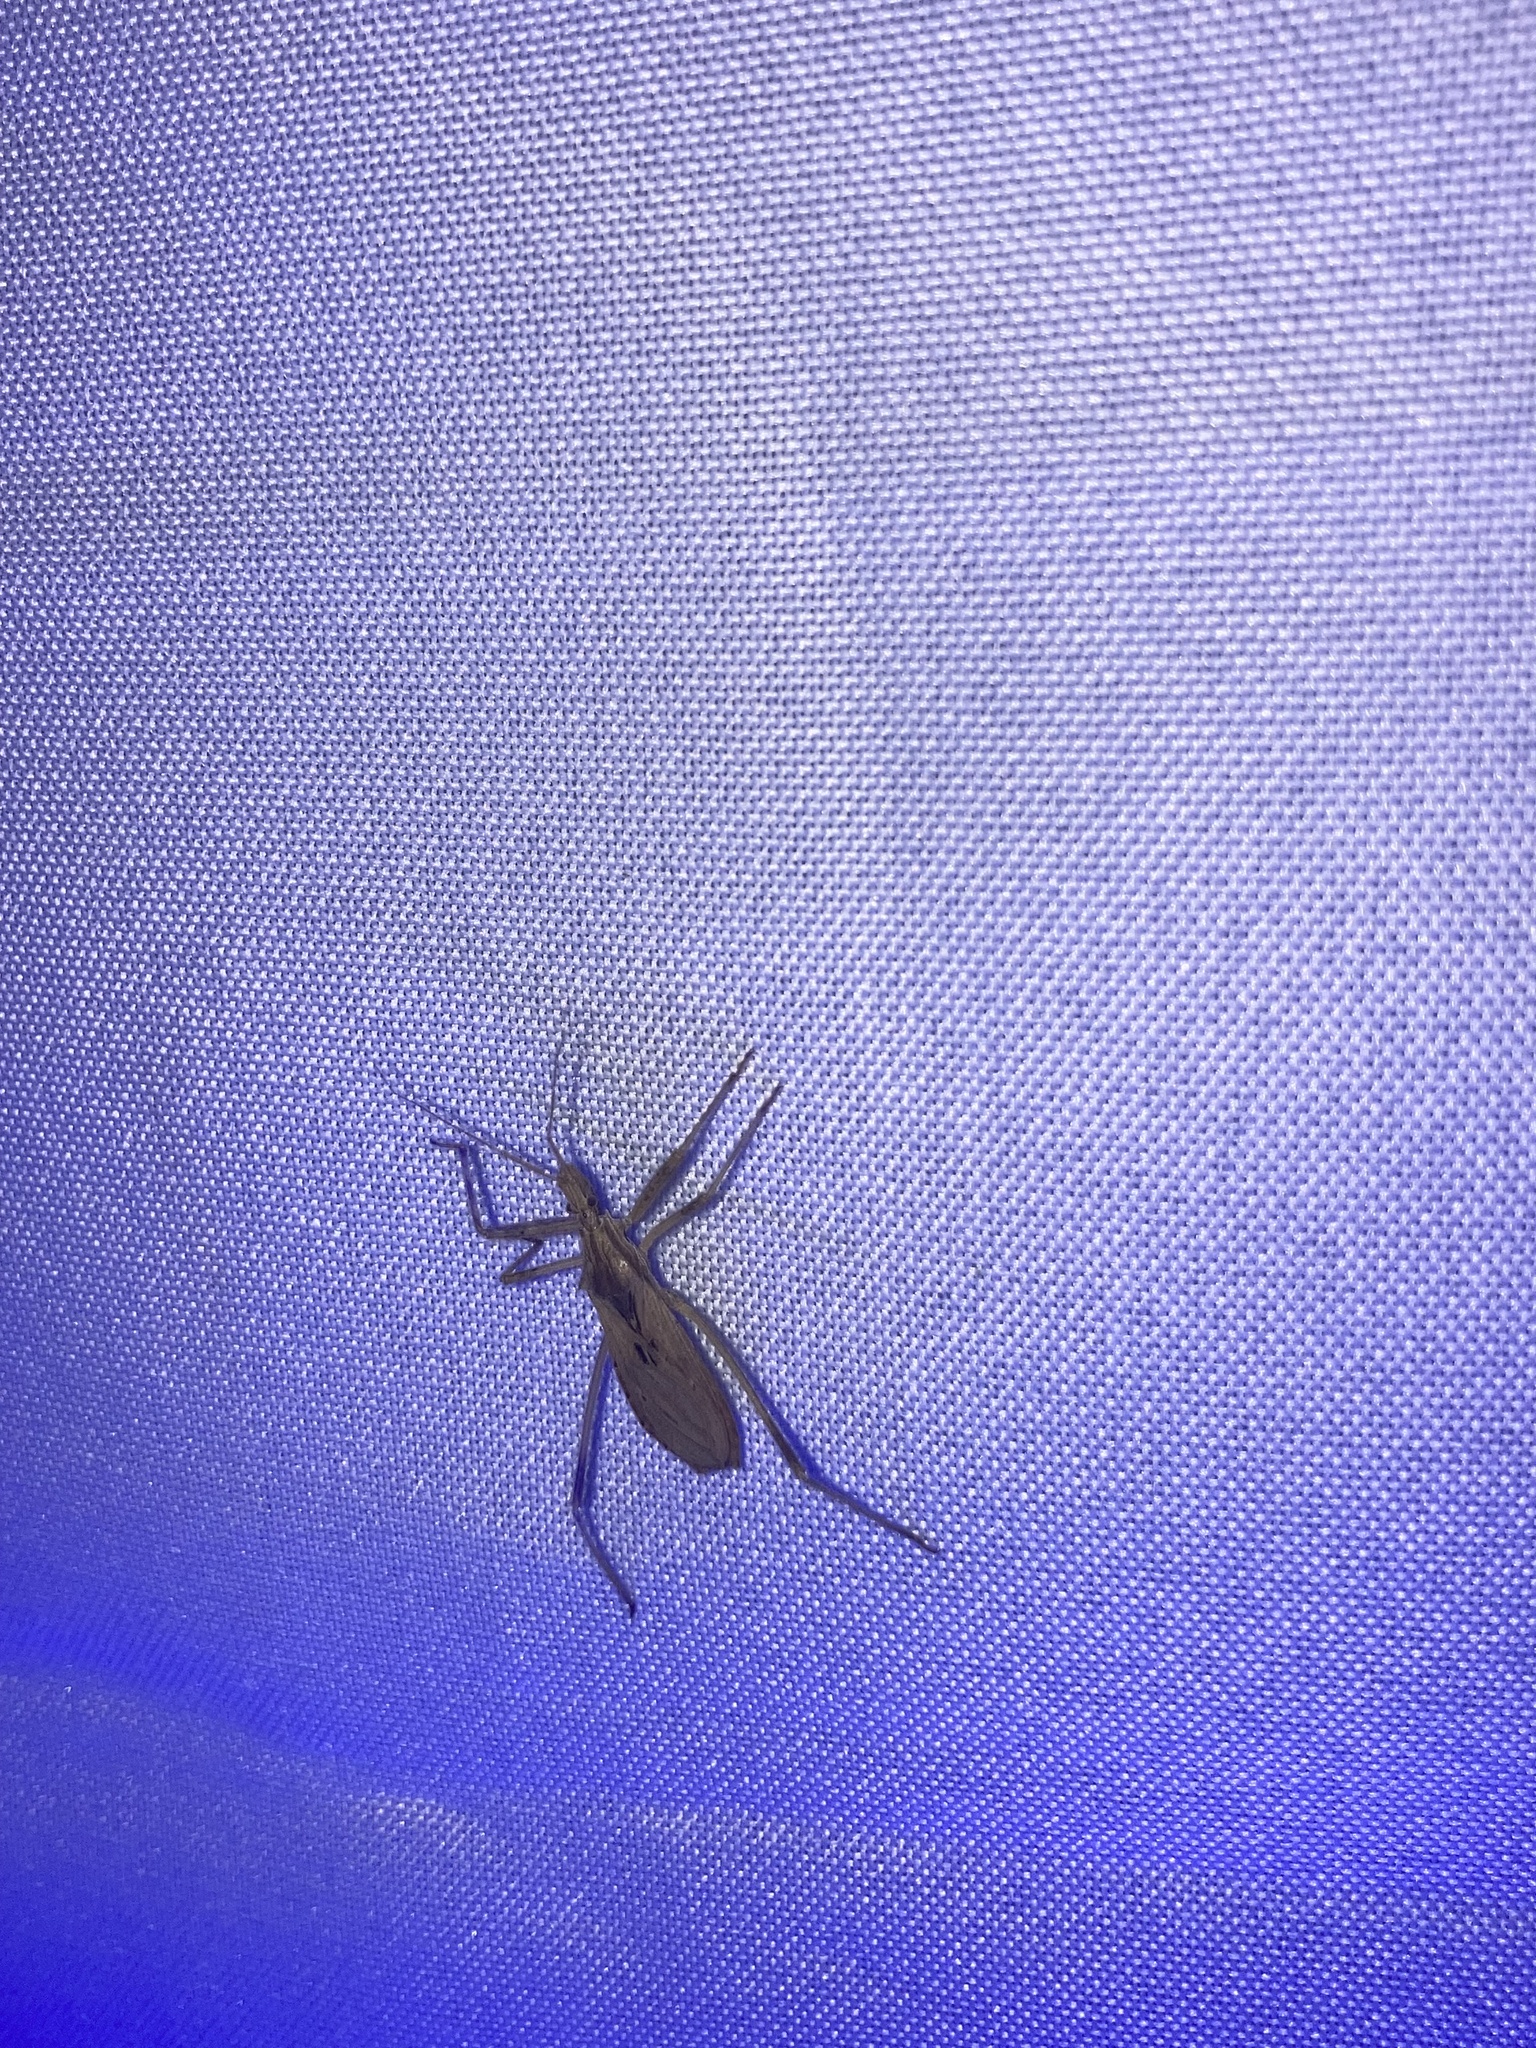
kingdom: Animalia
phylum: Arthropoda
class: Insecta
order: Hemiptera
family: Reduviidae
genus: Stenopoda
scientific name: Stenopoda spinulosa
